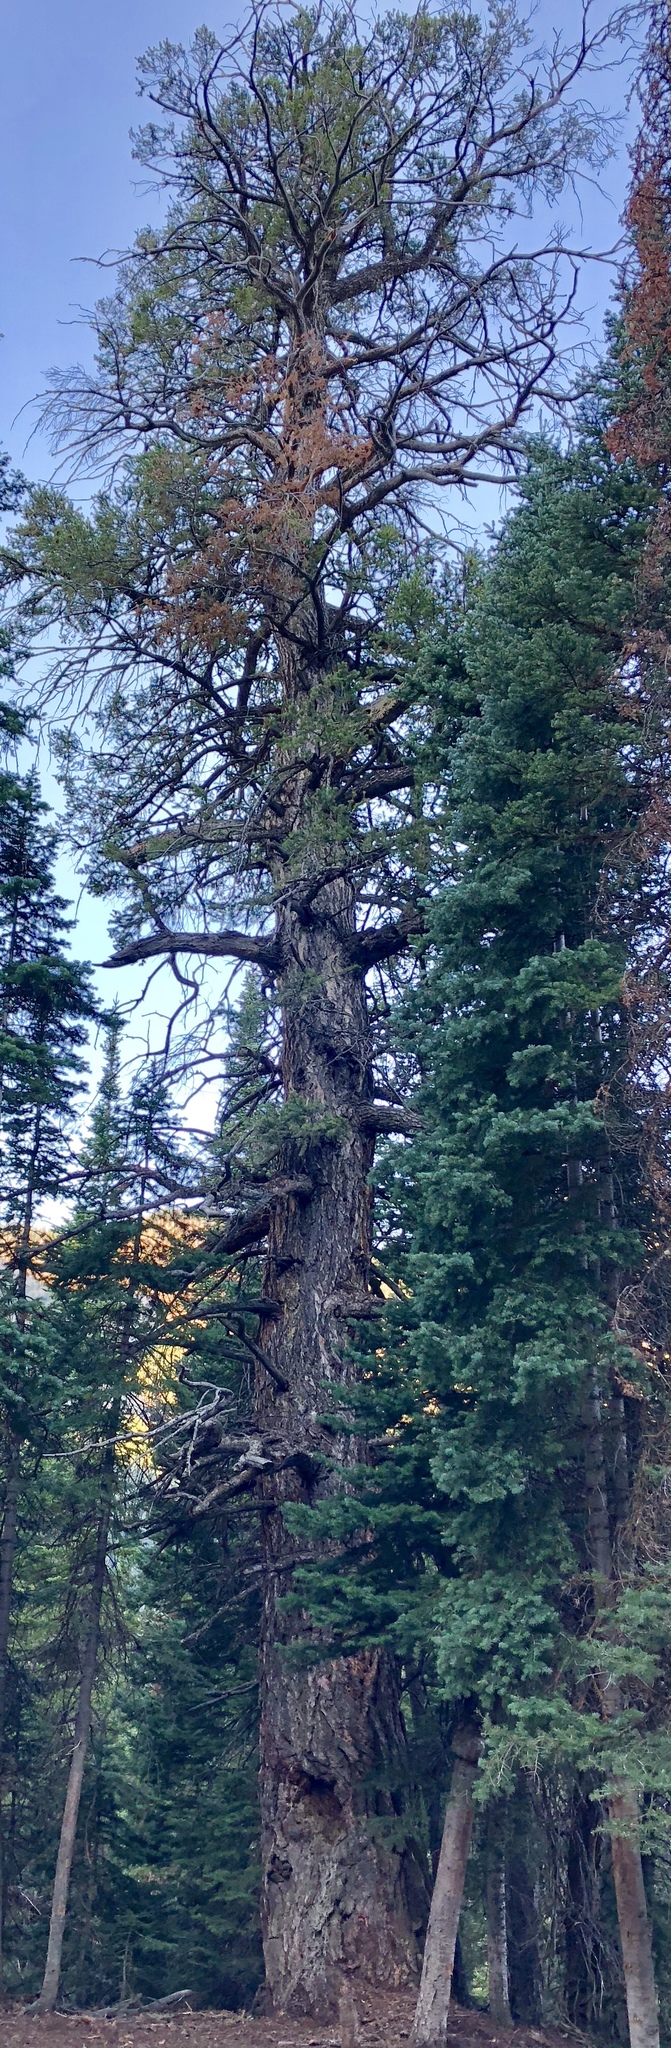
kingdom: Plantae
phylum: Tracheophyta
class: Pinopsida
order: Pinales
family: Pinaceae
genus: Pseudotsuga
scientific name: Pseudotsuga menziesii
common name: Douglas fir
